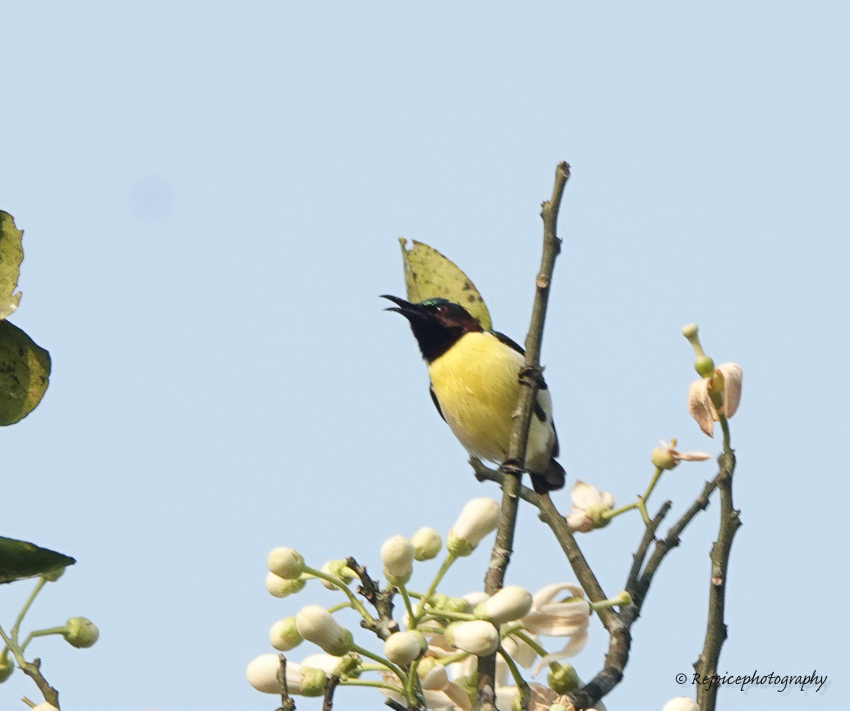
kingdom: Animalia
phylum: Chordata
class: Aves
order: Passeriformes
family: Nectariniidae
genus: Leptocoma
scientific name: Leptocoma zeylonica
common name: Purple-rumped sunbird
